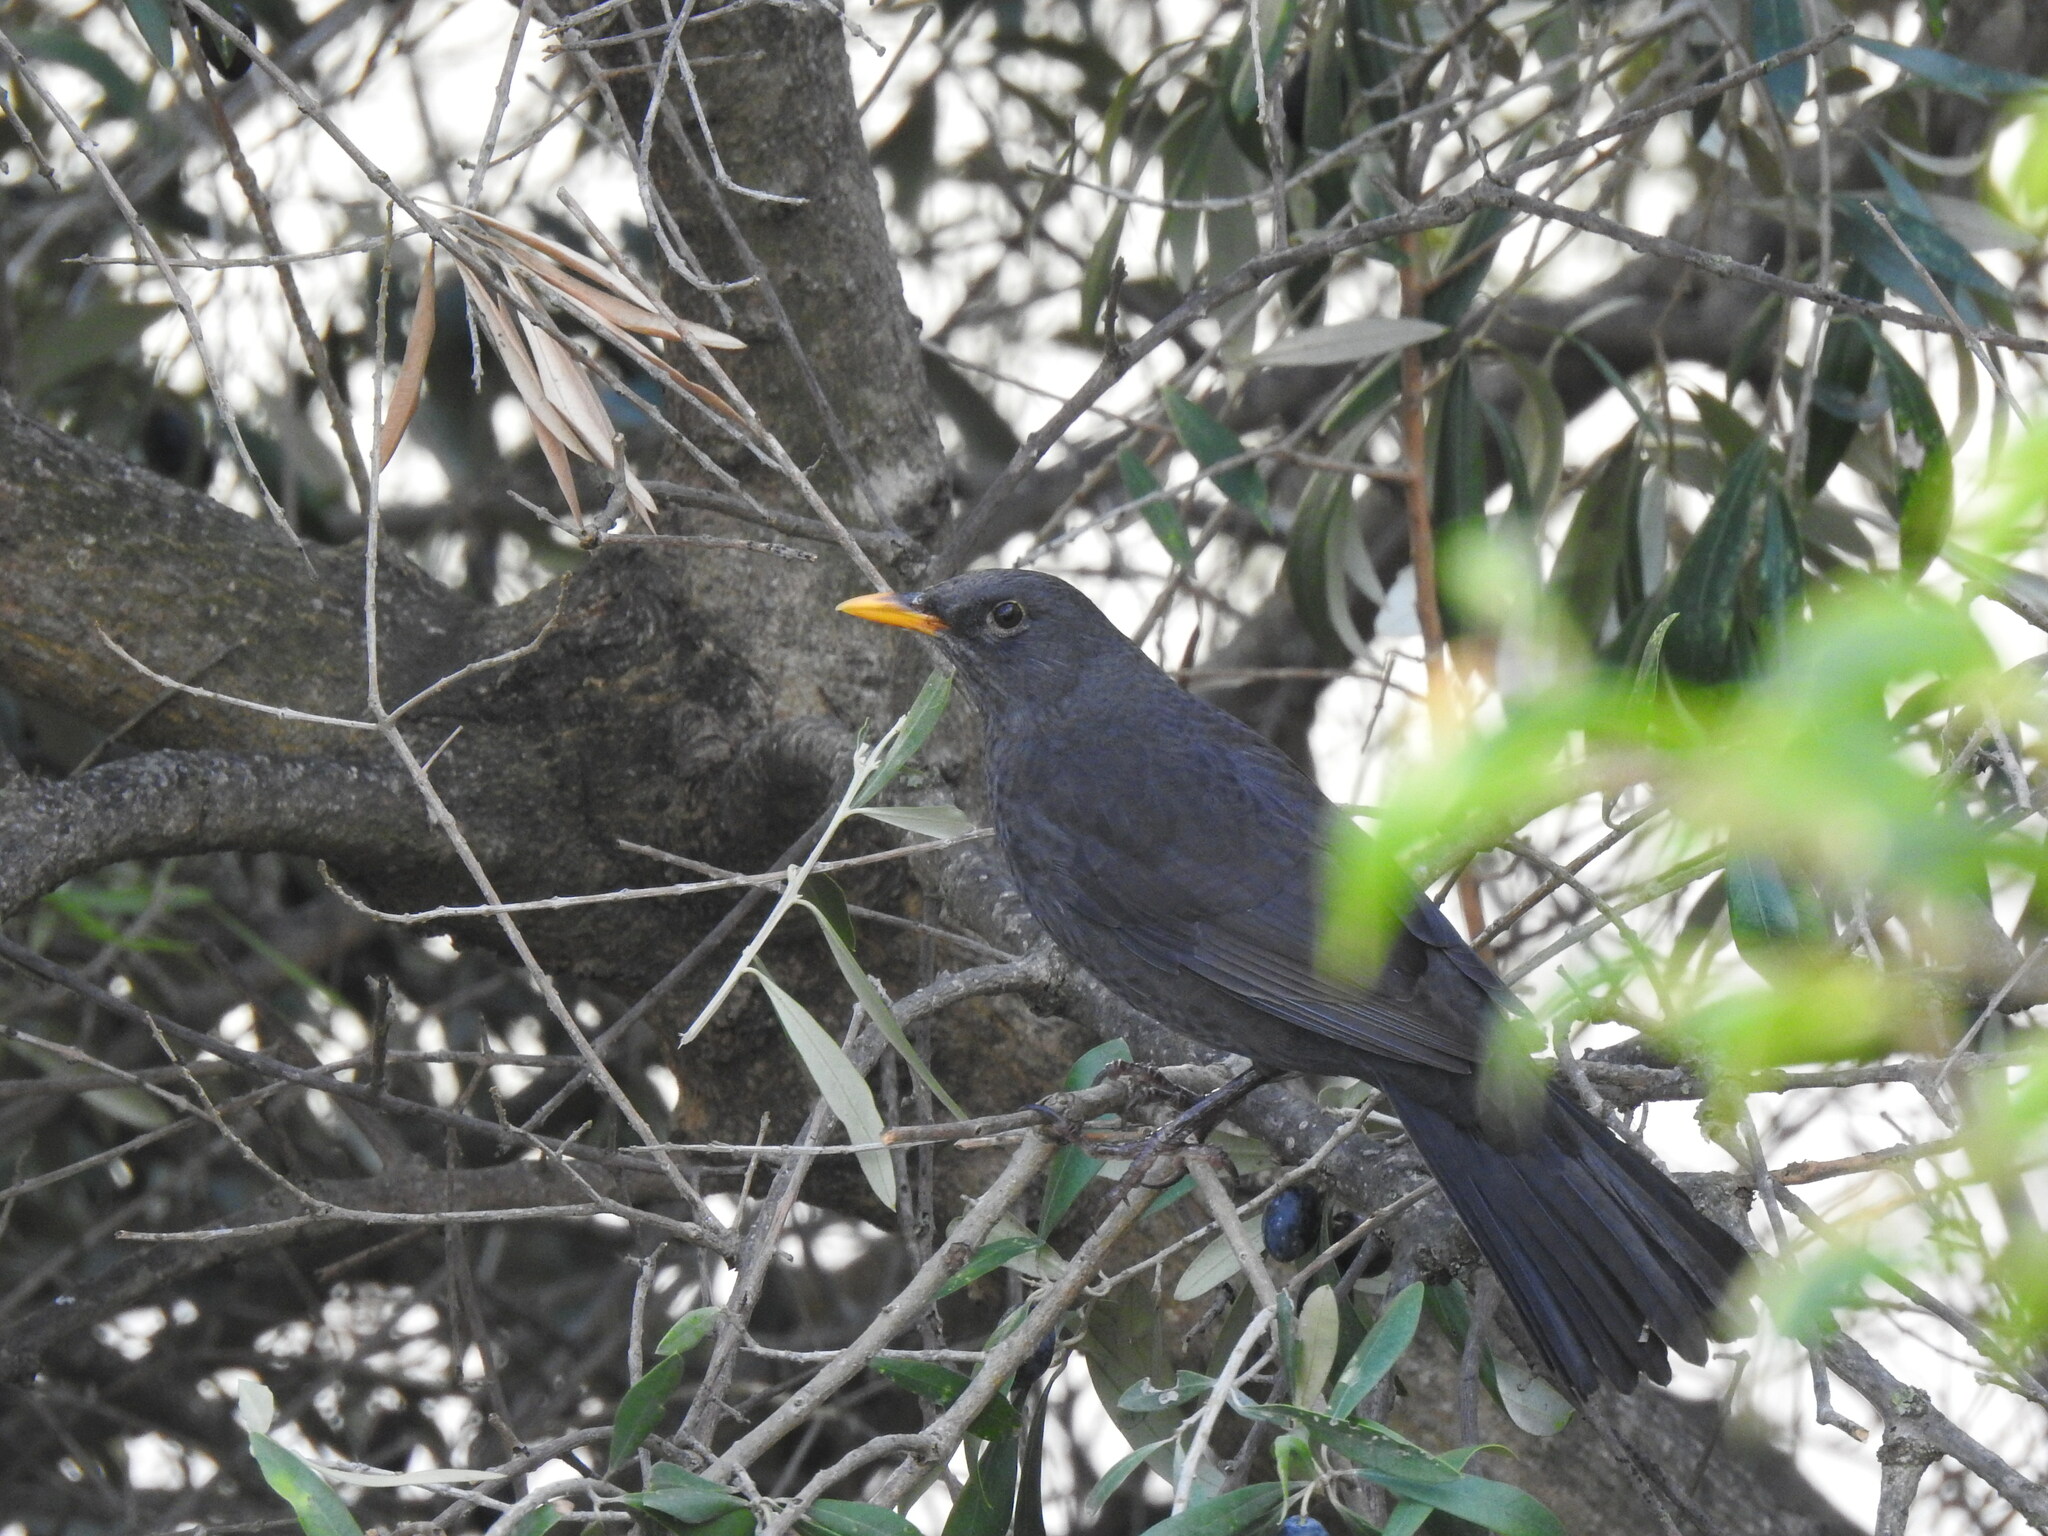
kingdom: Animalia
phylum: Chordata
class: Aves
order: Passeriformes
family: Turdidae
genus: Turdus
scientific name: Turdus merula
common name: Common blackbird
